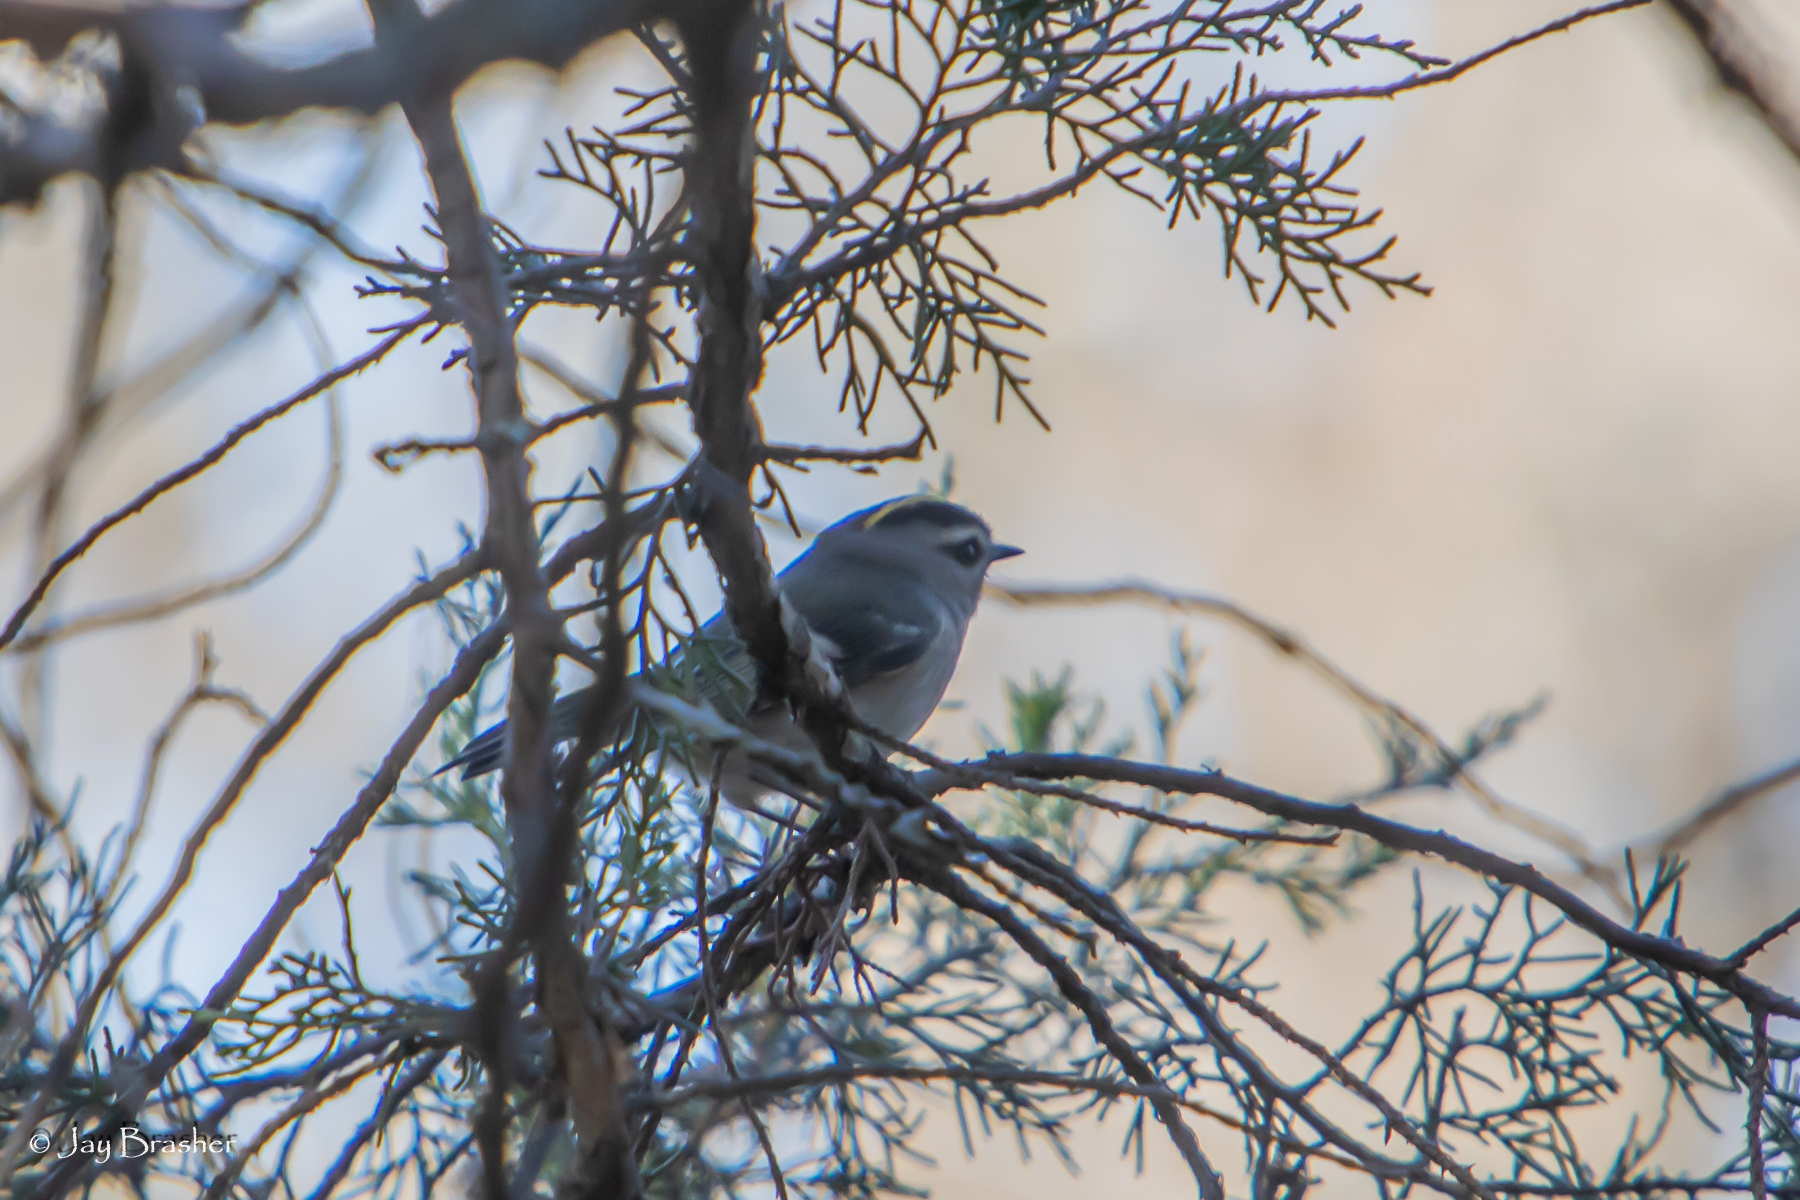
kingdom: Animalia
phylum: Chordata
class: Aves
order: Passeriformes
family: Regulidae
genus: Regulus
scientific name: Regulus satrapa
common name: Golden-crowned kinglet
